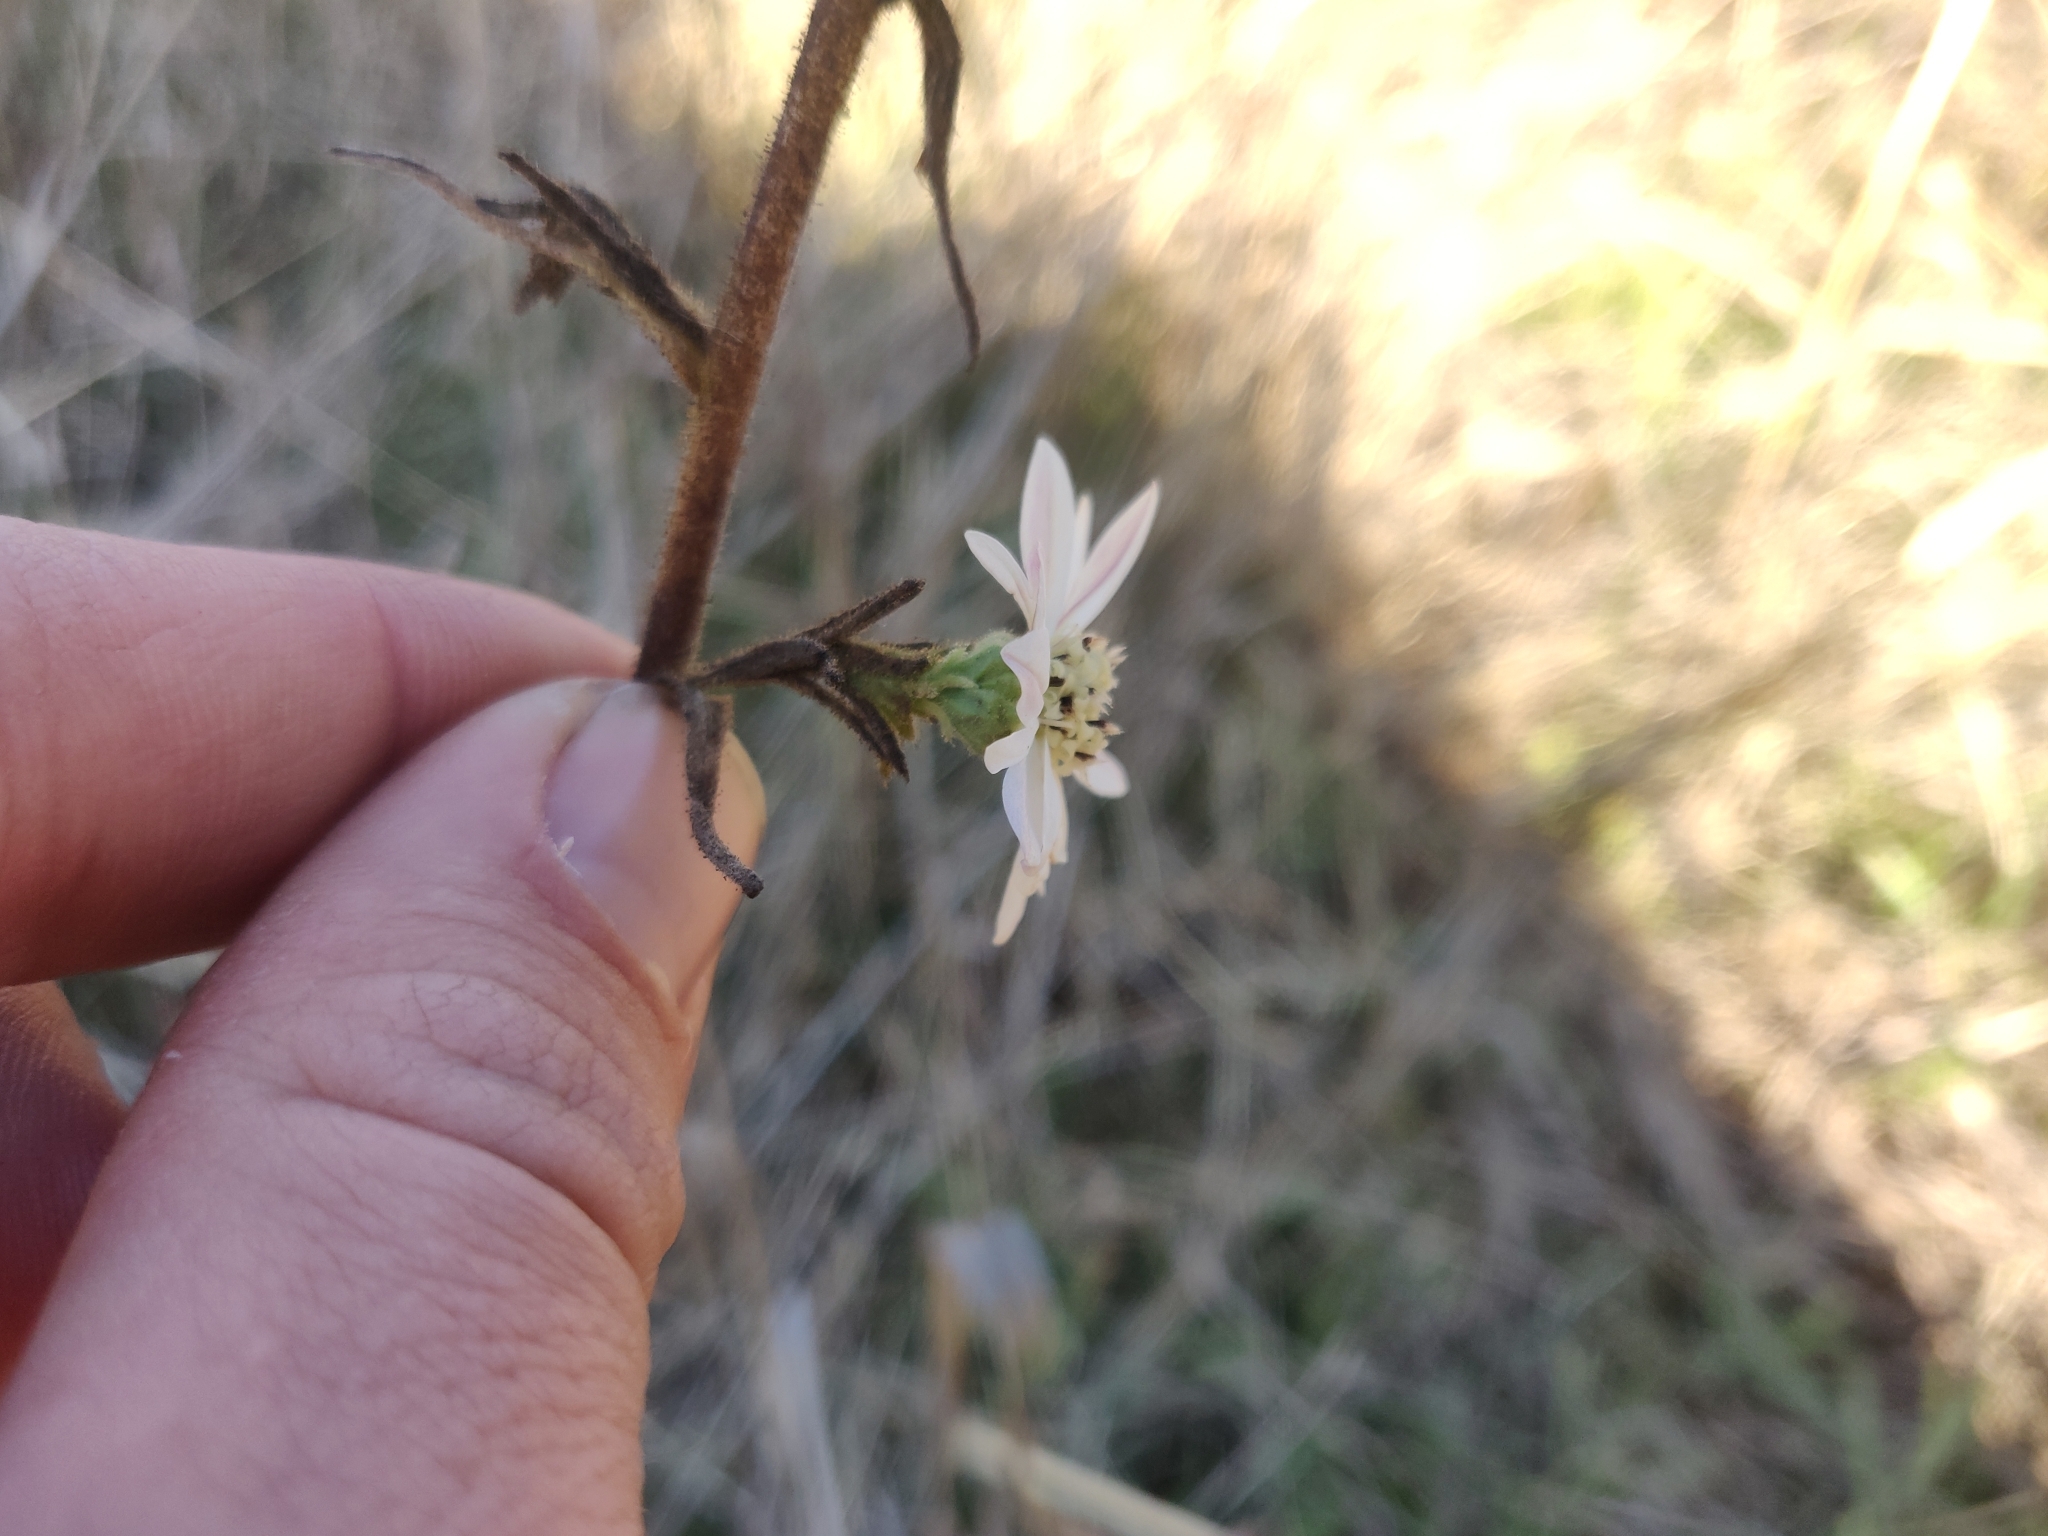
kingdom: Plantae
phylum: Tracheophyta
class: Magnoliopsida
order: Asterales
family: Asteraceae
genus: Hemizonia
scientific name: Hemizonia congesta
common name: Hayfield tarweed
